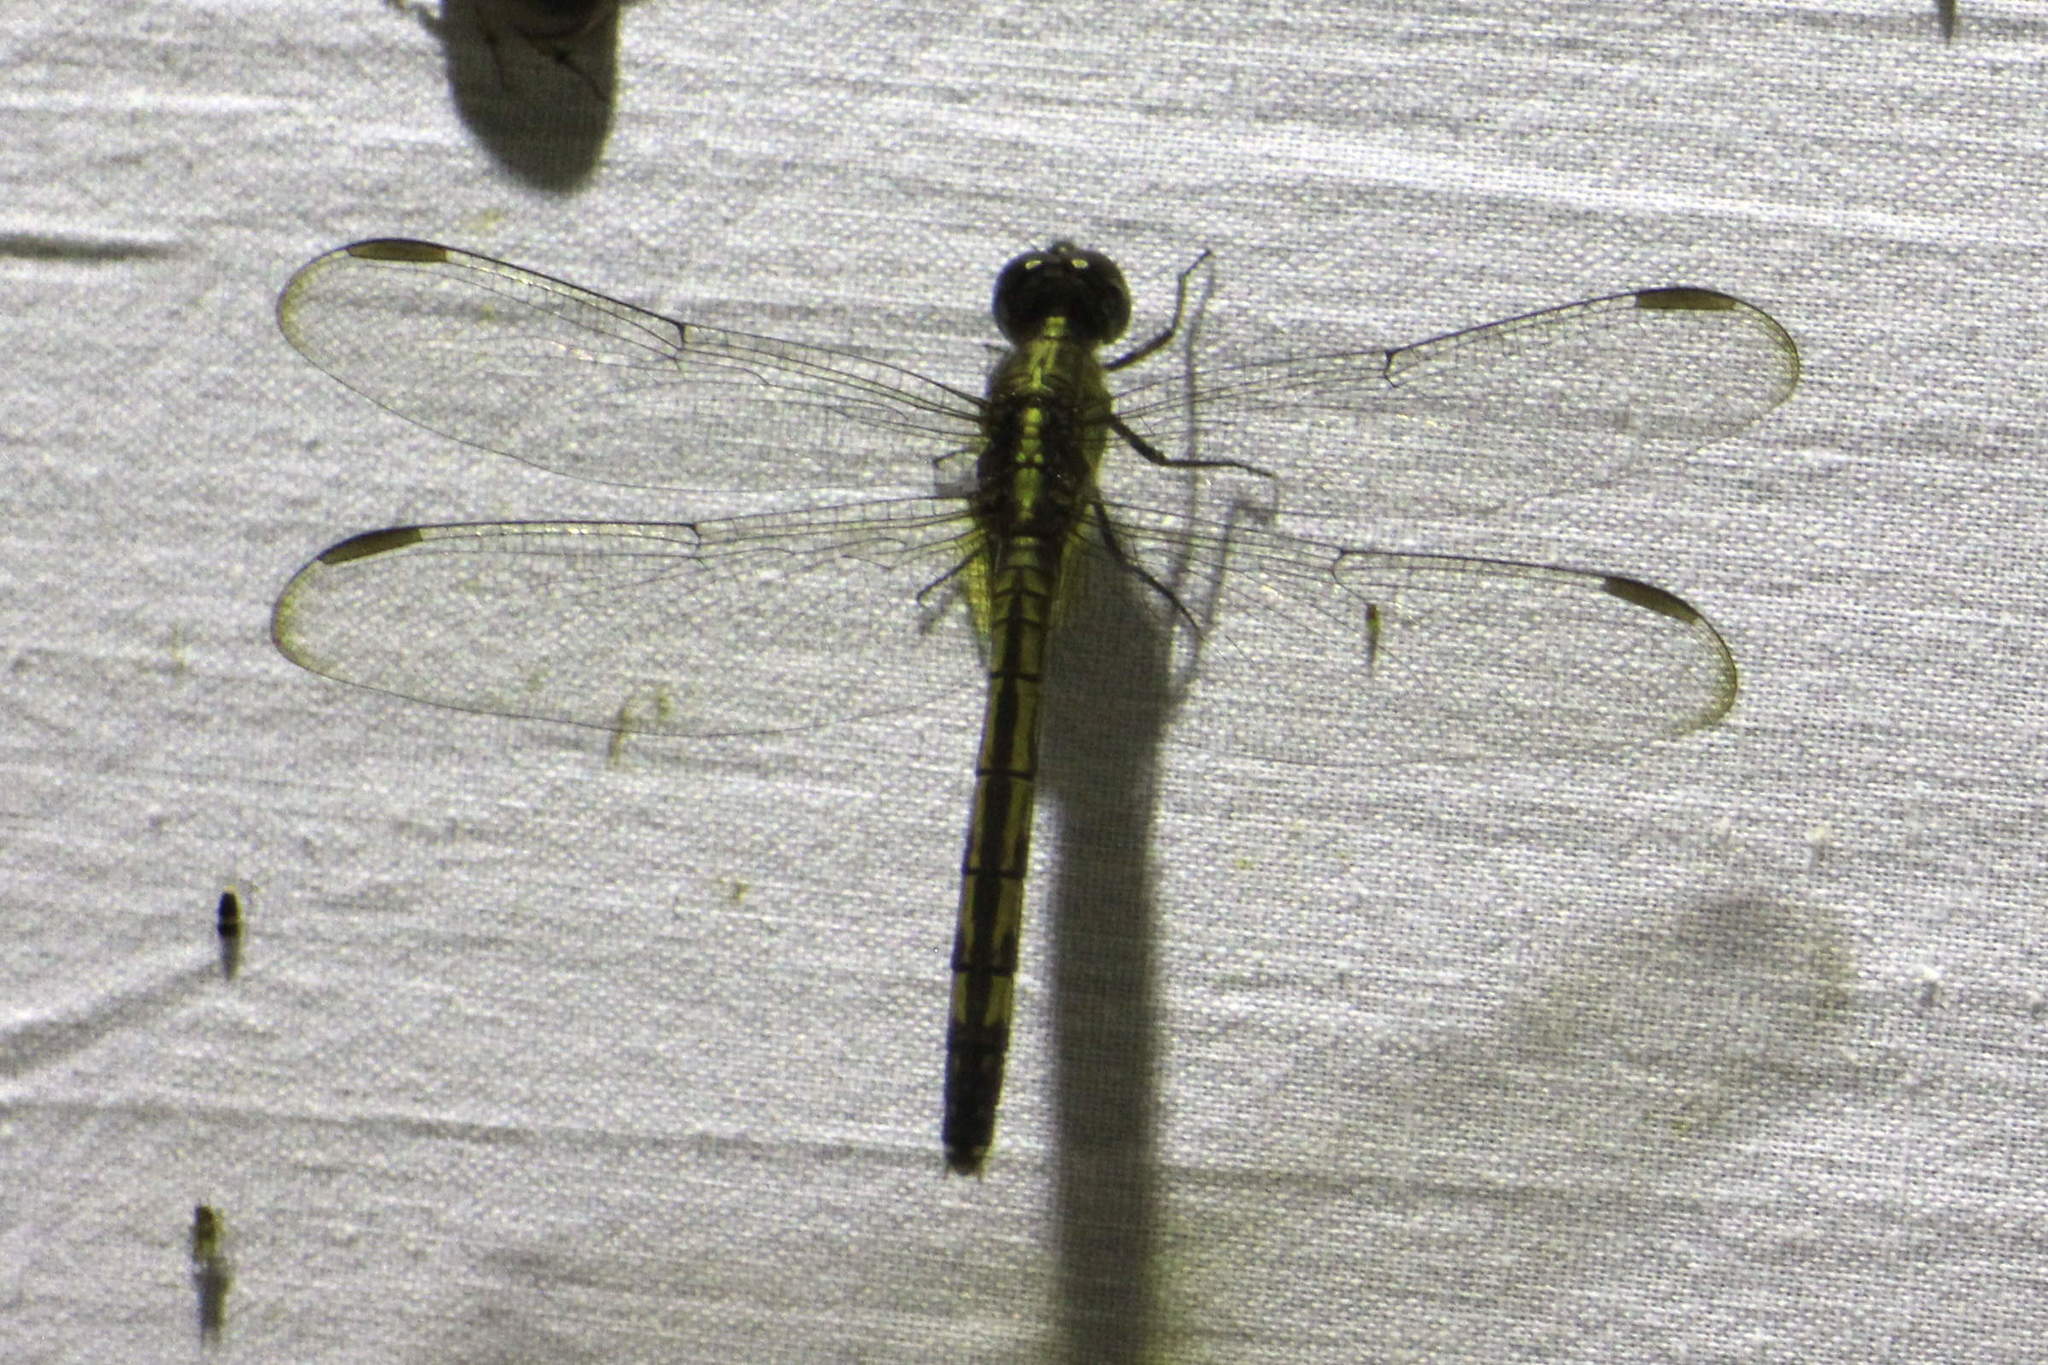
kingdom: Animalia
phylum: Arthropoda
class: Insecta
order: Odonata
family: Libellulidae
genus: Erythrodiplax
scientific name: Erythrodiplax umbrata
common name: Band-winged dragonlet
